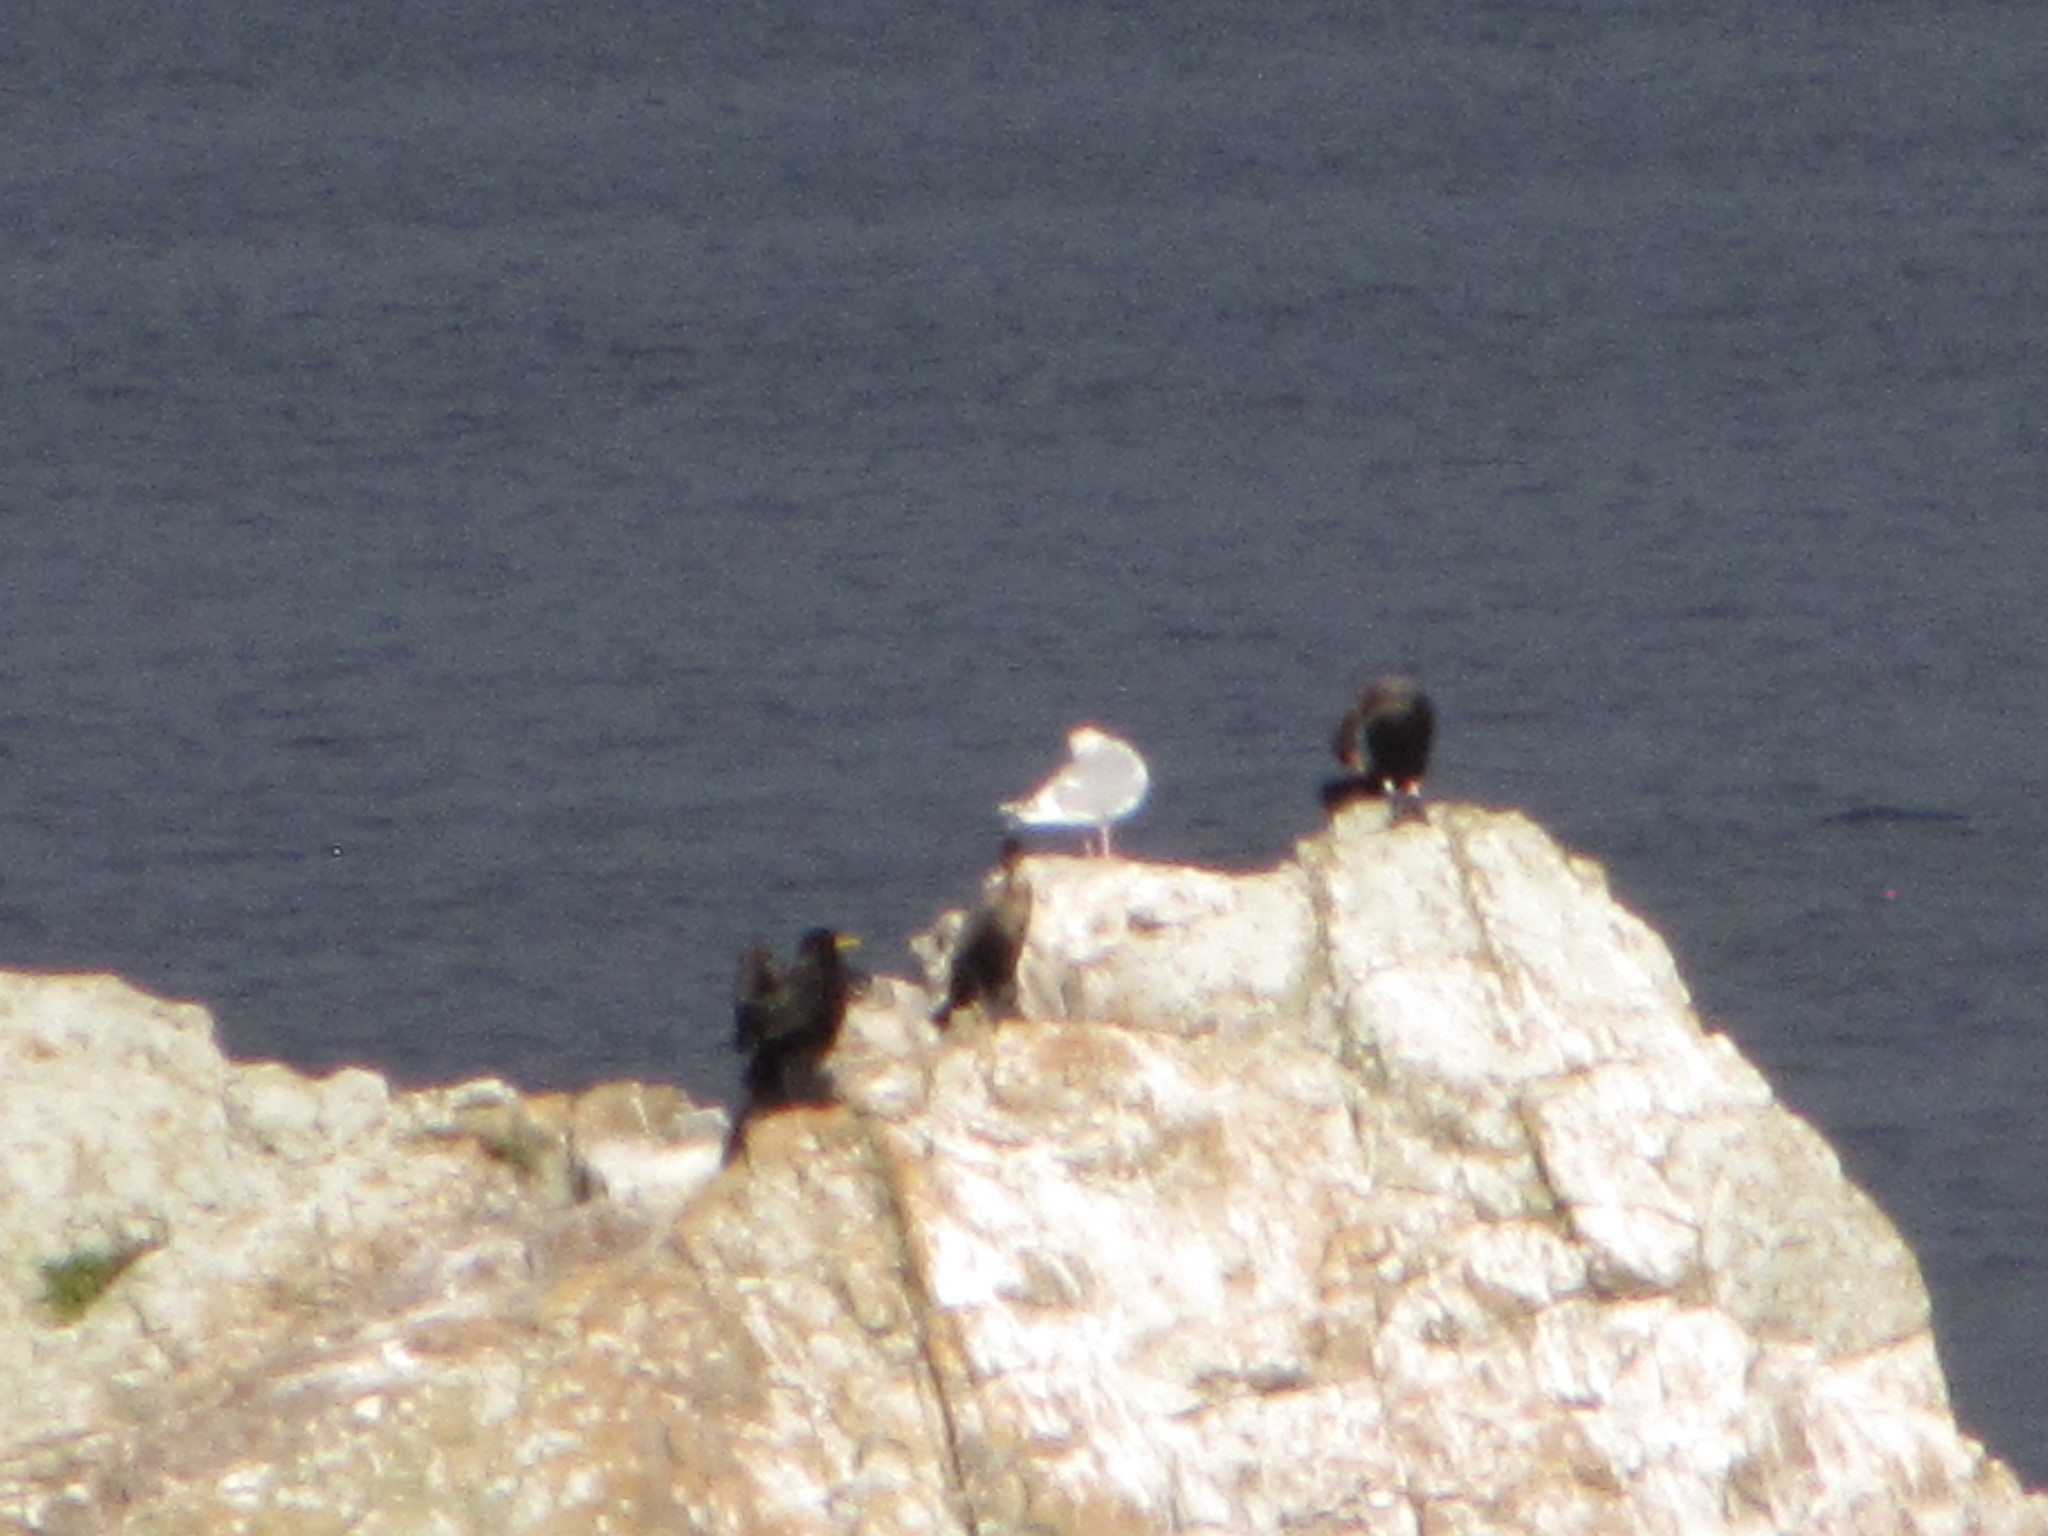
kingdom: Animalia
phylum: Chordata
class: Aves
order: Suliformes
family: Phalacrocoracidae
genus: Phalacrocorax
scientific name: Phalacrocorax auritus
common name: Double-crested cormorant
